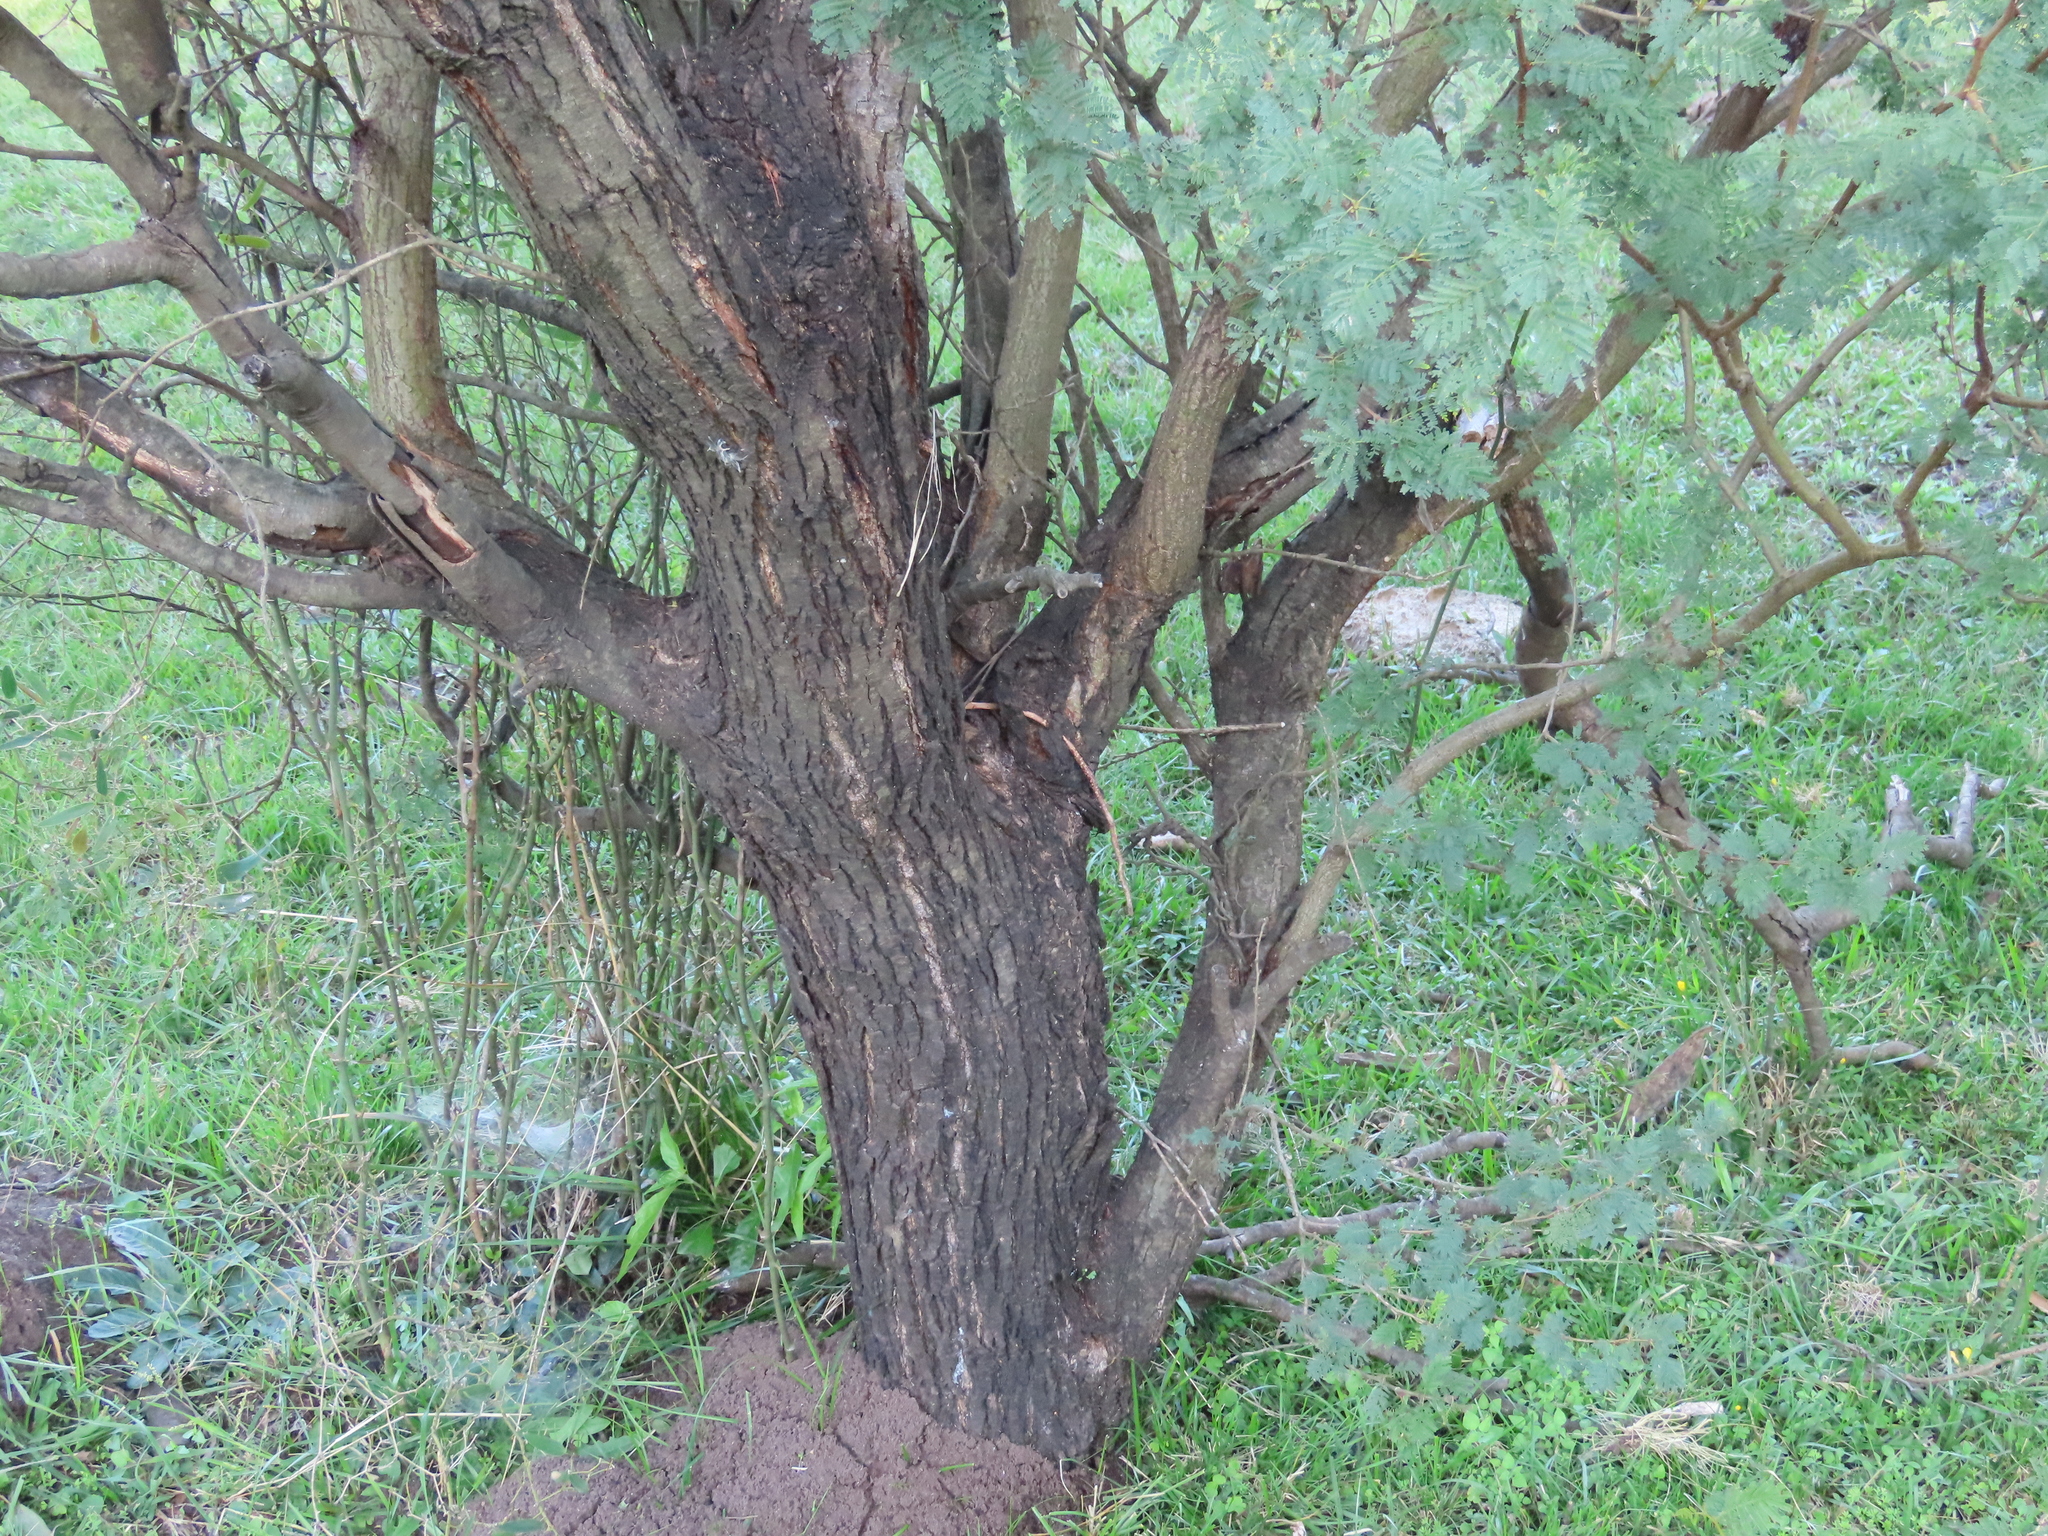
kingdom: Plantae
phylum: Tracheophyta
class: Magnoliopsida
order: Fabales
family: Fabaceae
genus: Vachellia
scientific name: Vachellia caven
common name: Roman cassie
